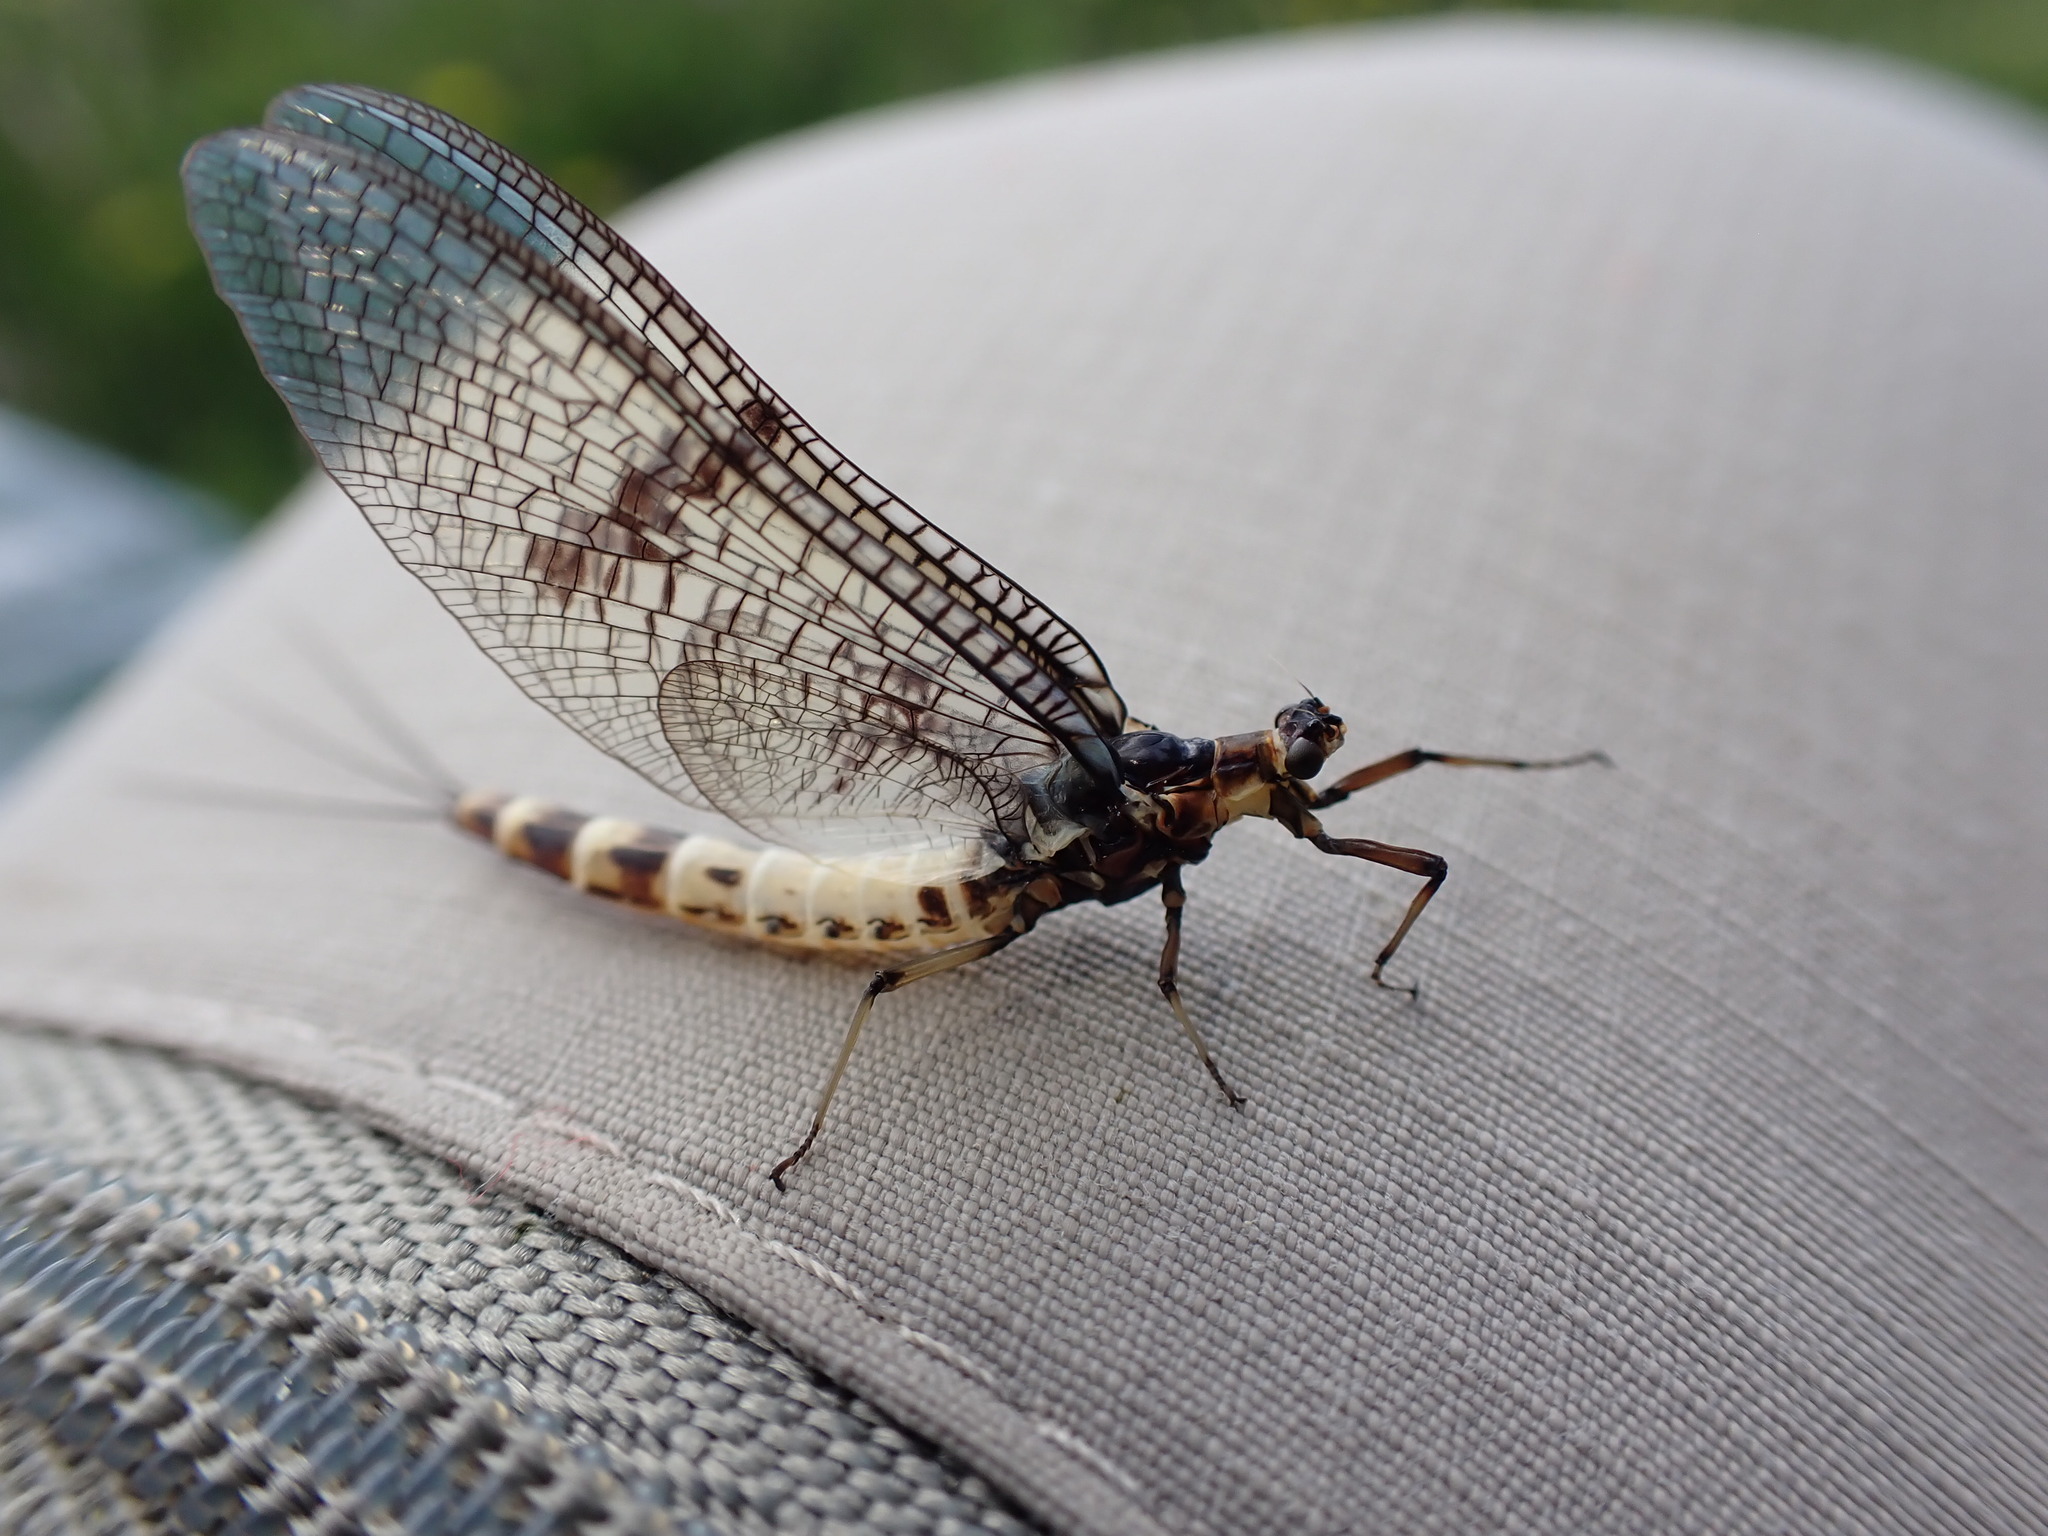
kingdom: Animalia
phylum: Arthropoda
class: Insecta
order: Ephemeroptera
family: Ephemeridae
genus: Ephemera
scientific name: Ephemera danica
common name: Green dun
